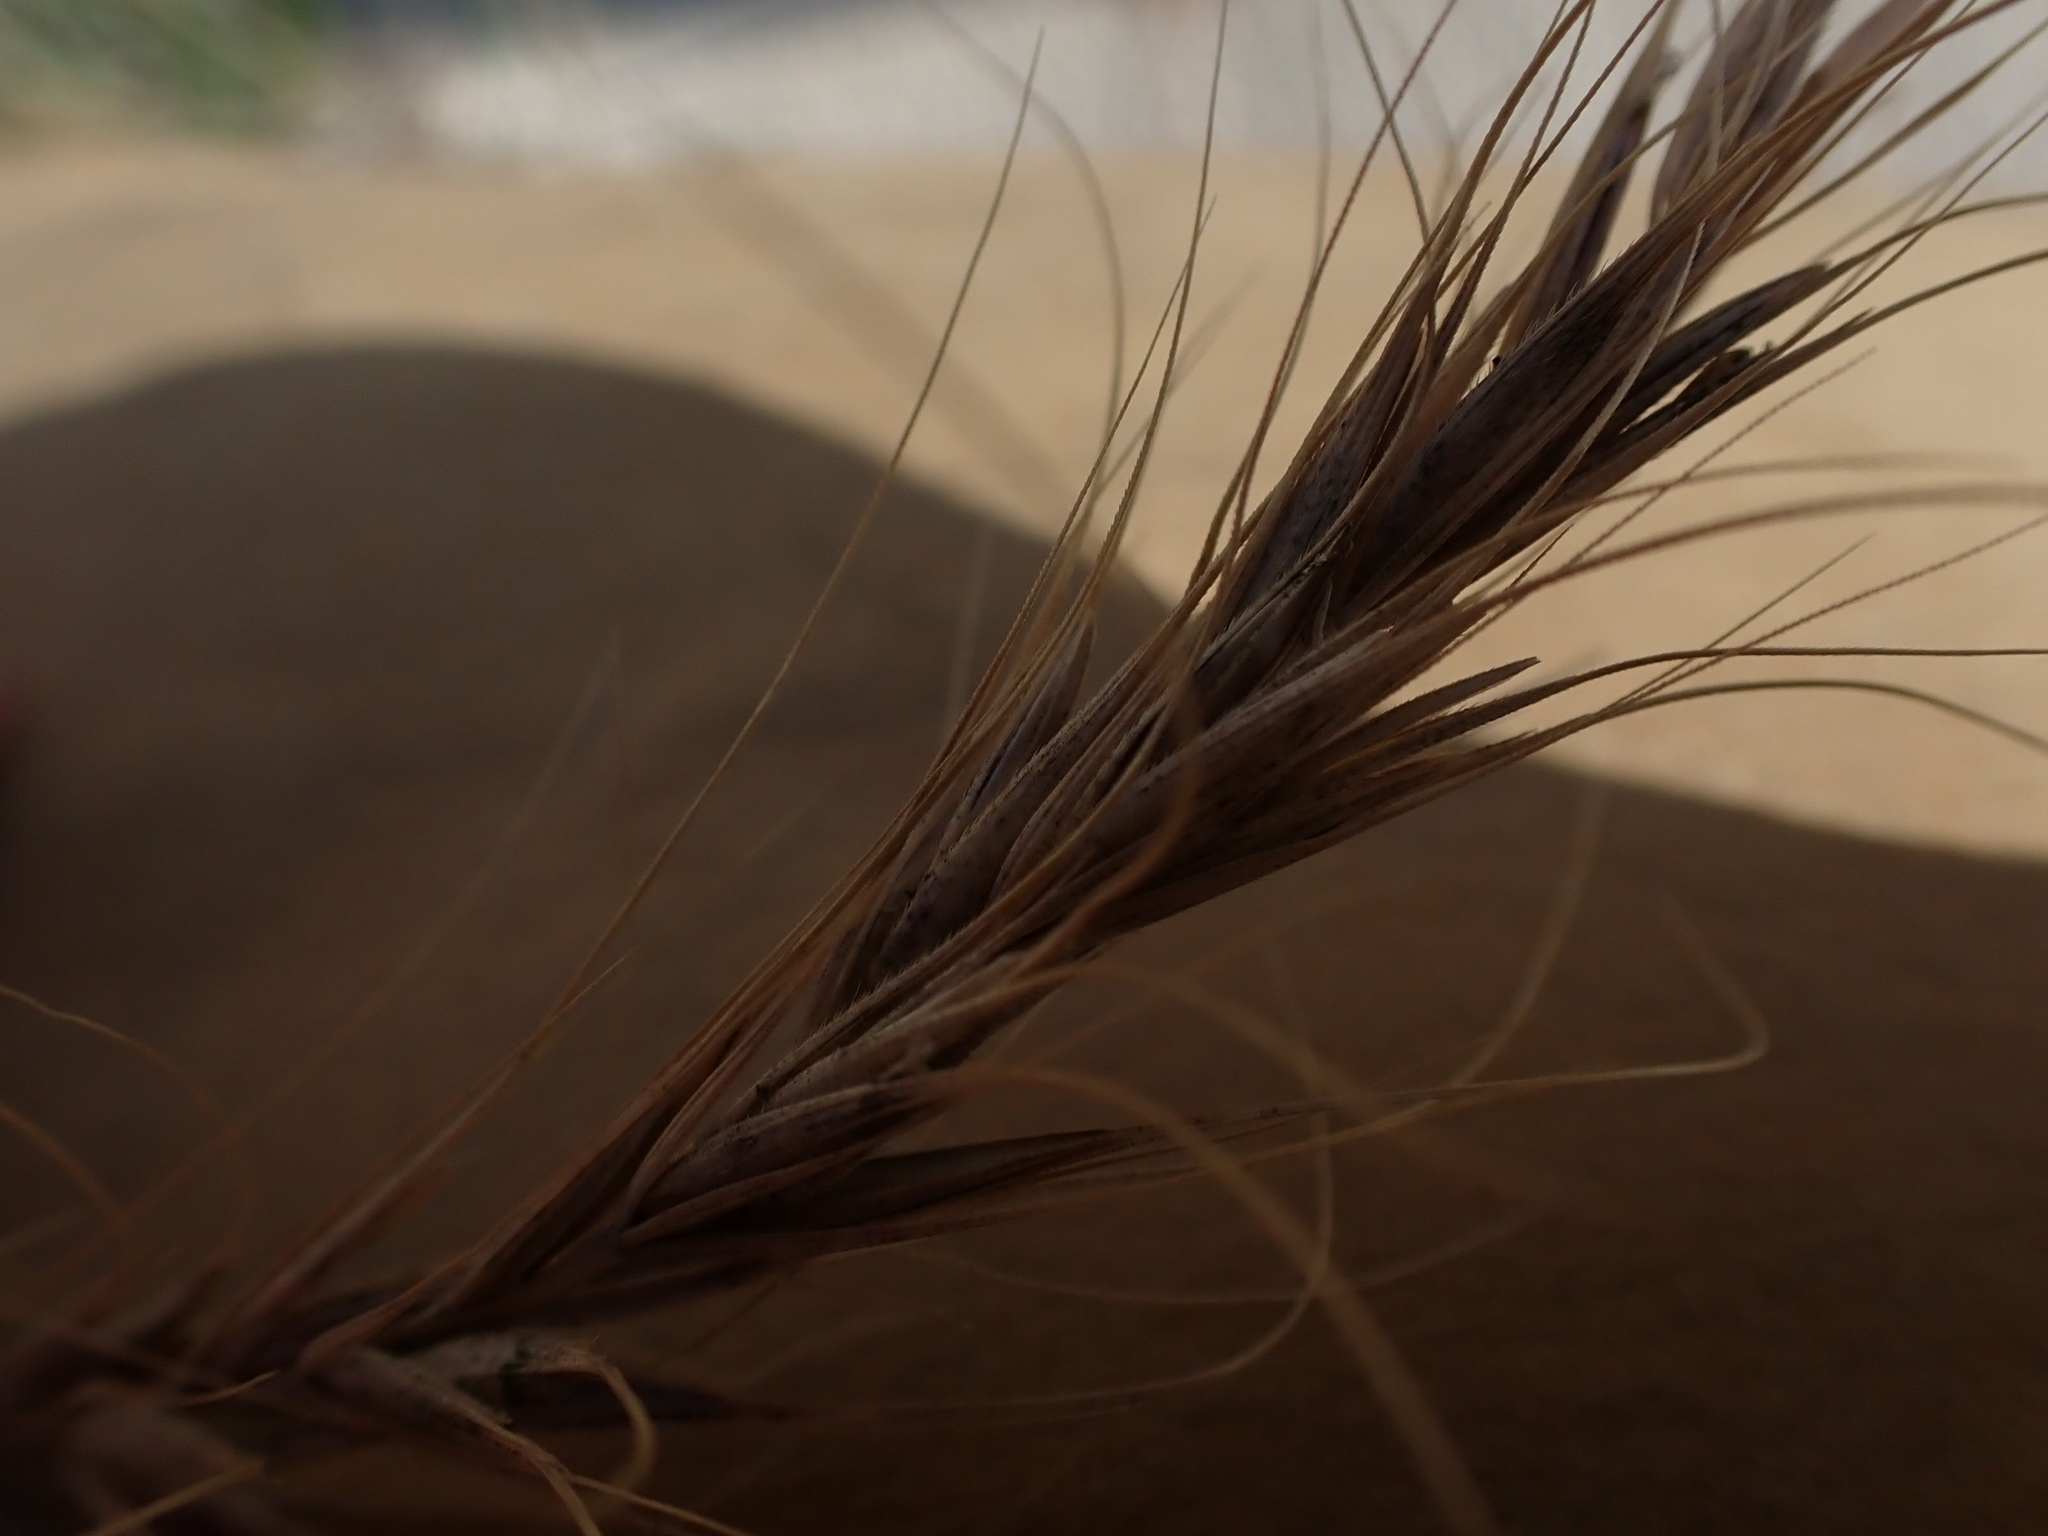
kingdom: Plantae
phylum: Tracheophyta
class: Liliopsida
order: Poales
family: Poaceae
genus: Elymus
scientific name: Elymus canadensis
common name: Canada wild rye
